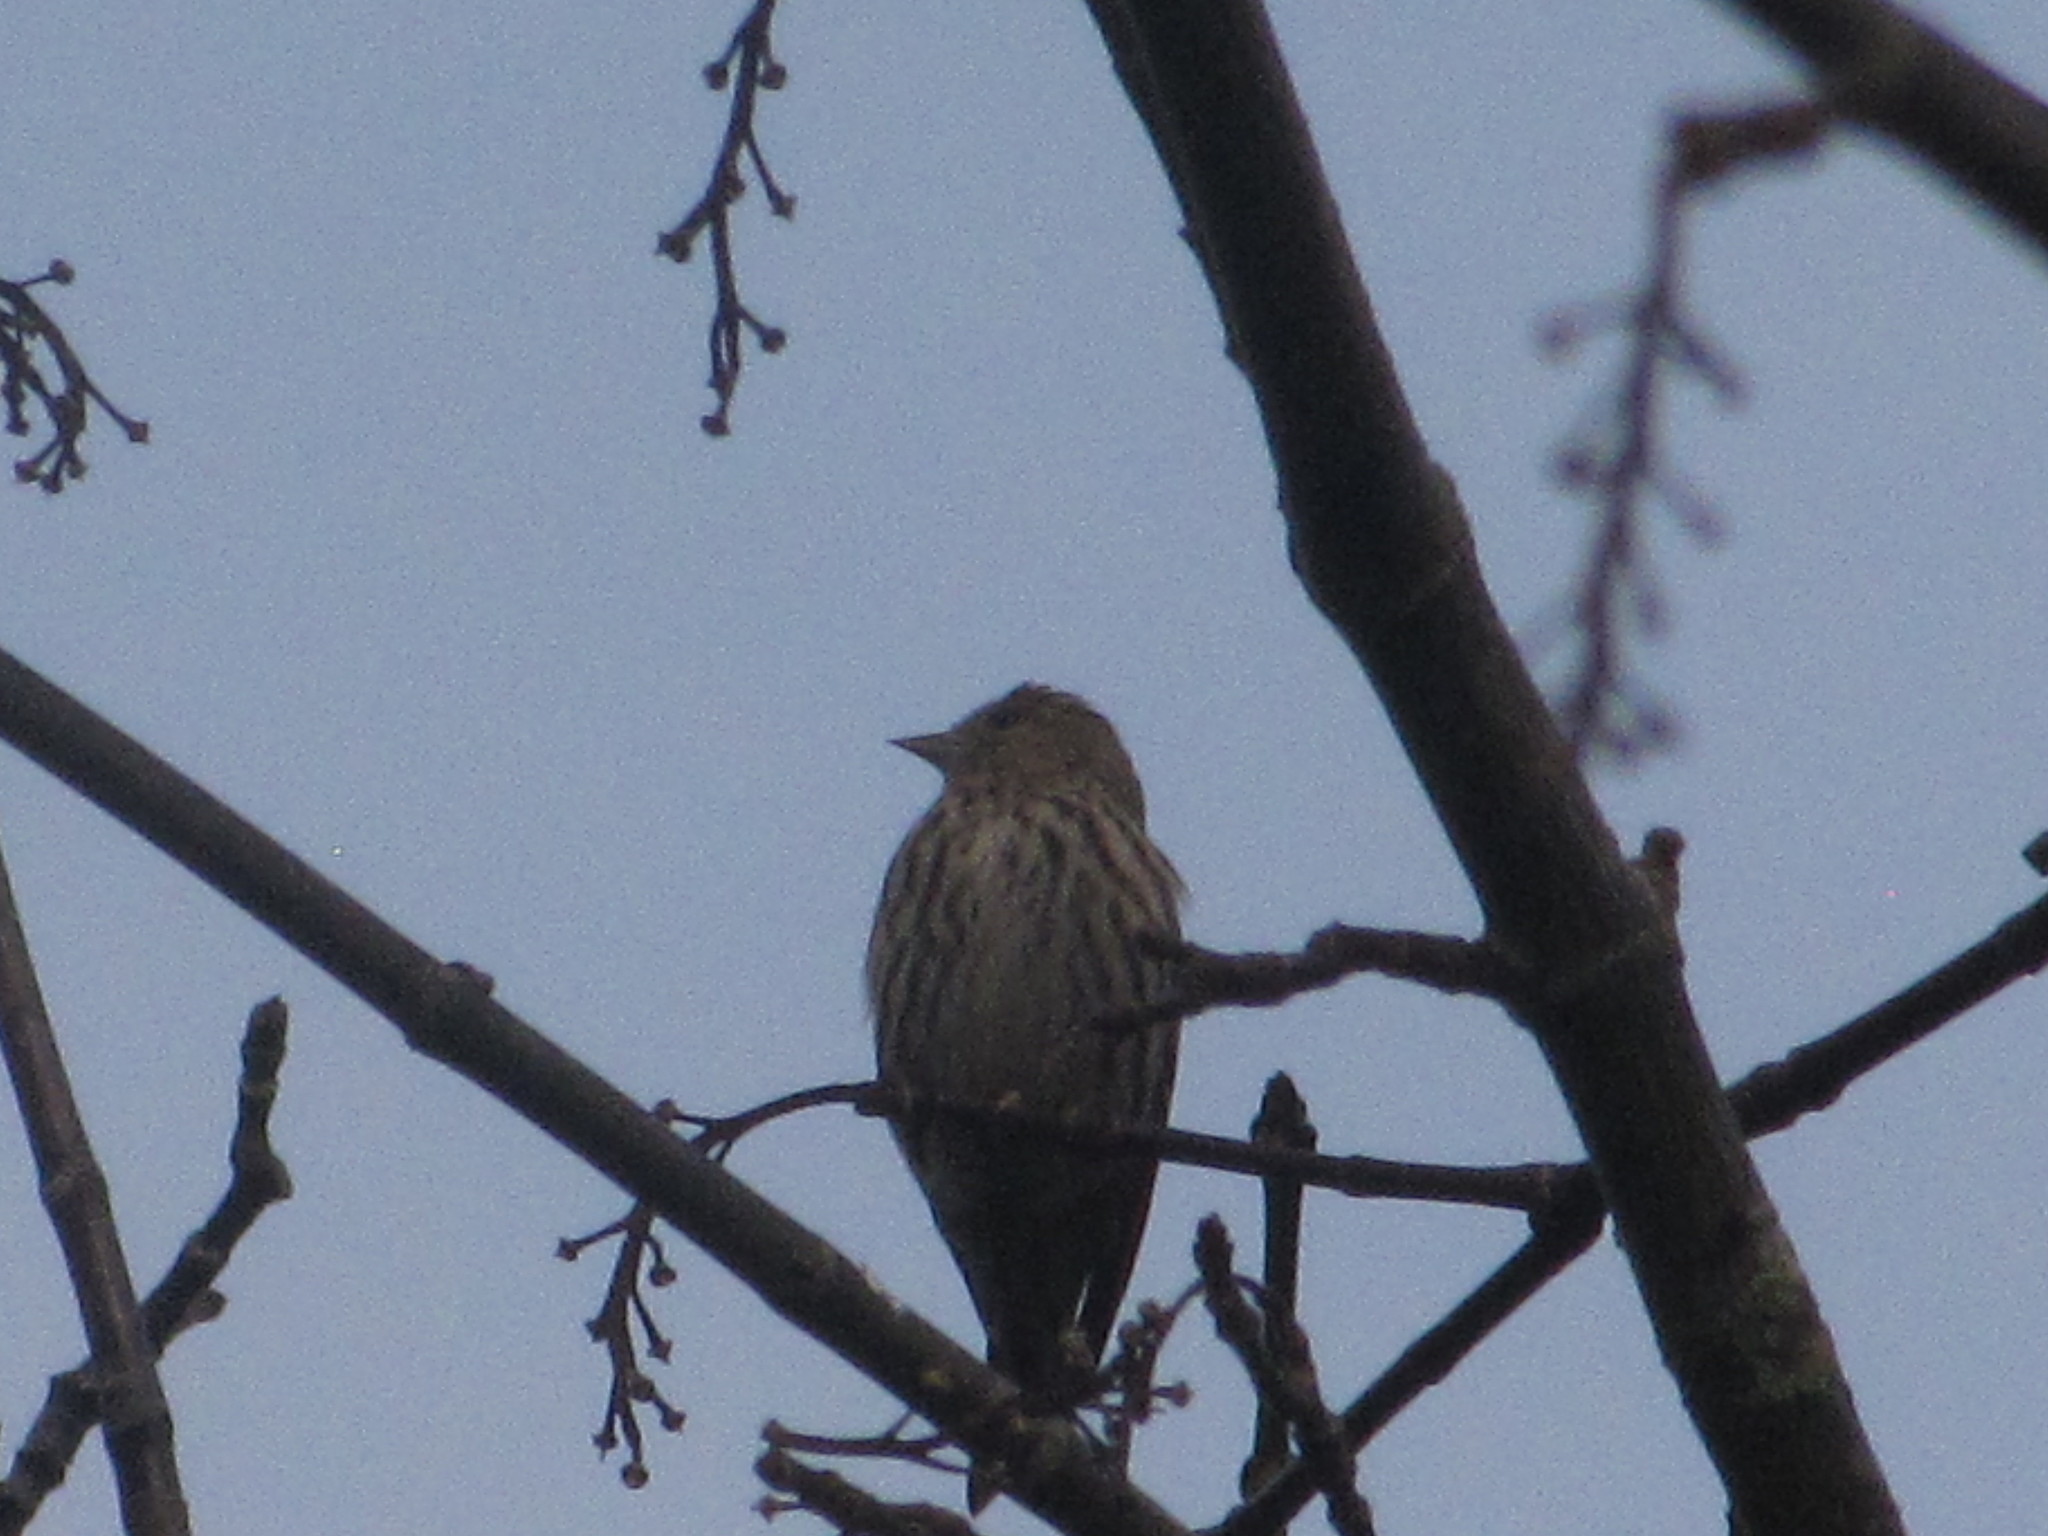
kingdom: Animalia
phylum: Chordata
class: Aves
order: Passeriformes
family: Fringillidae
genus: Spinus
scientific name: Spinus pinus
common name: Pine siskin
